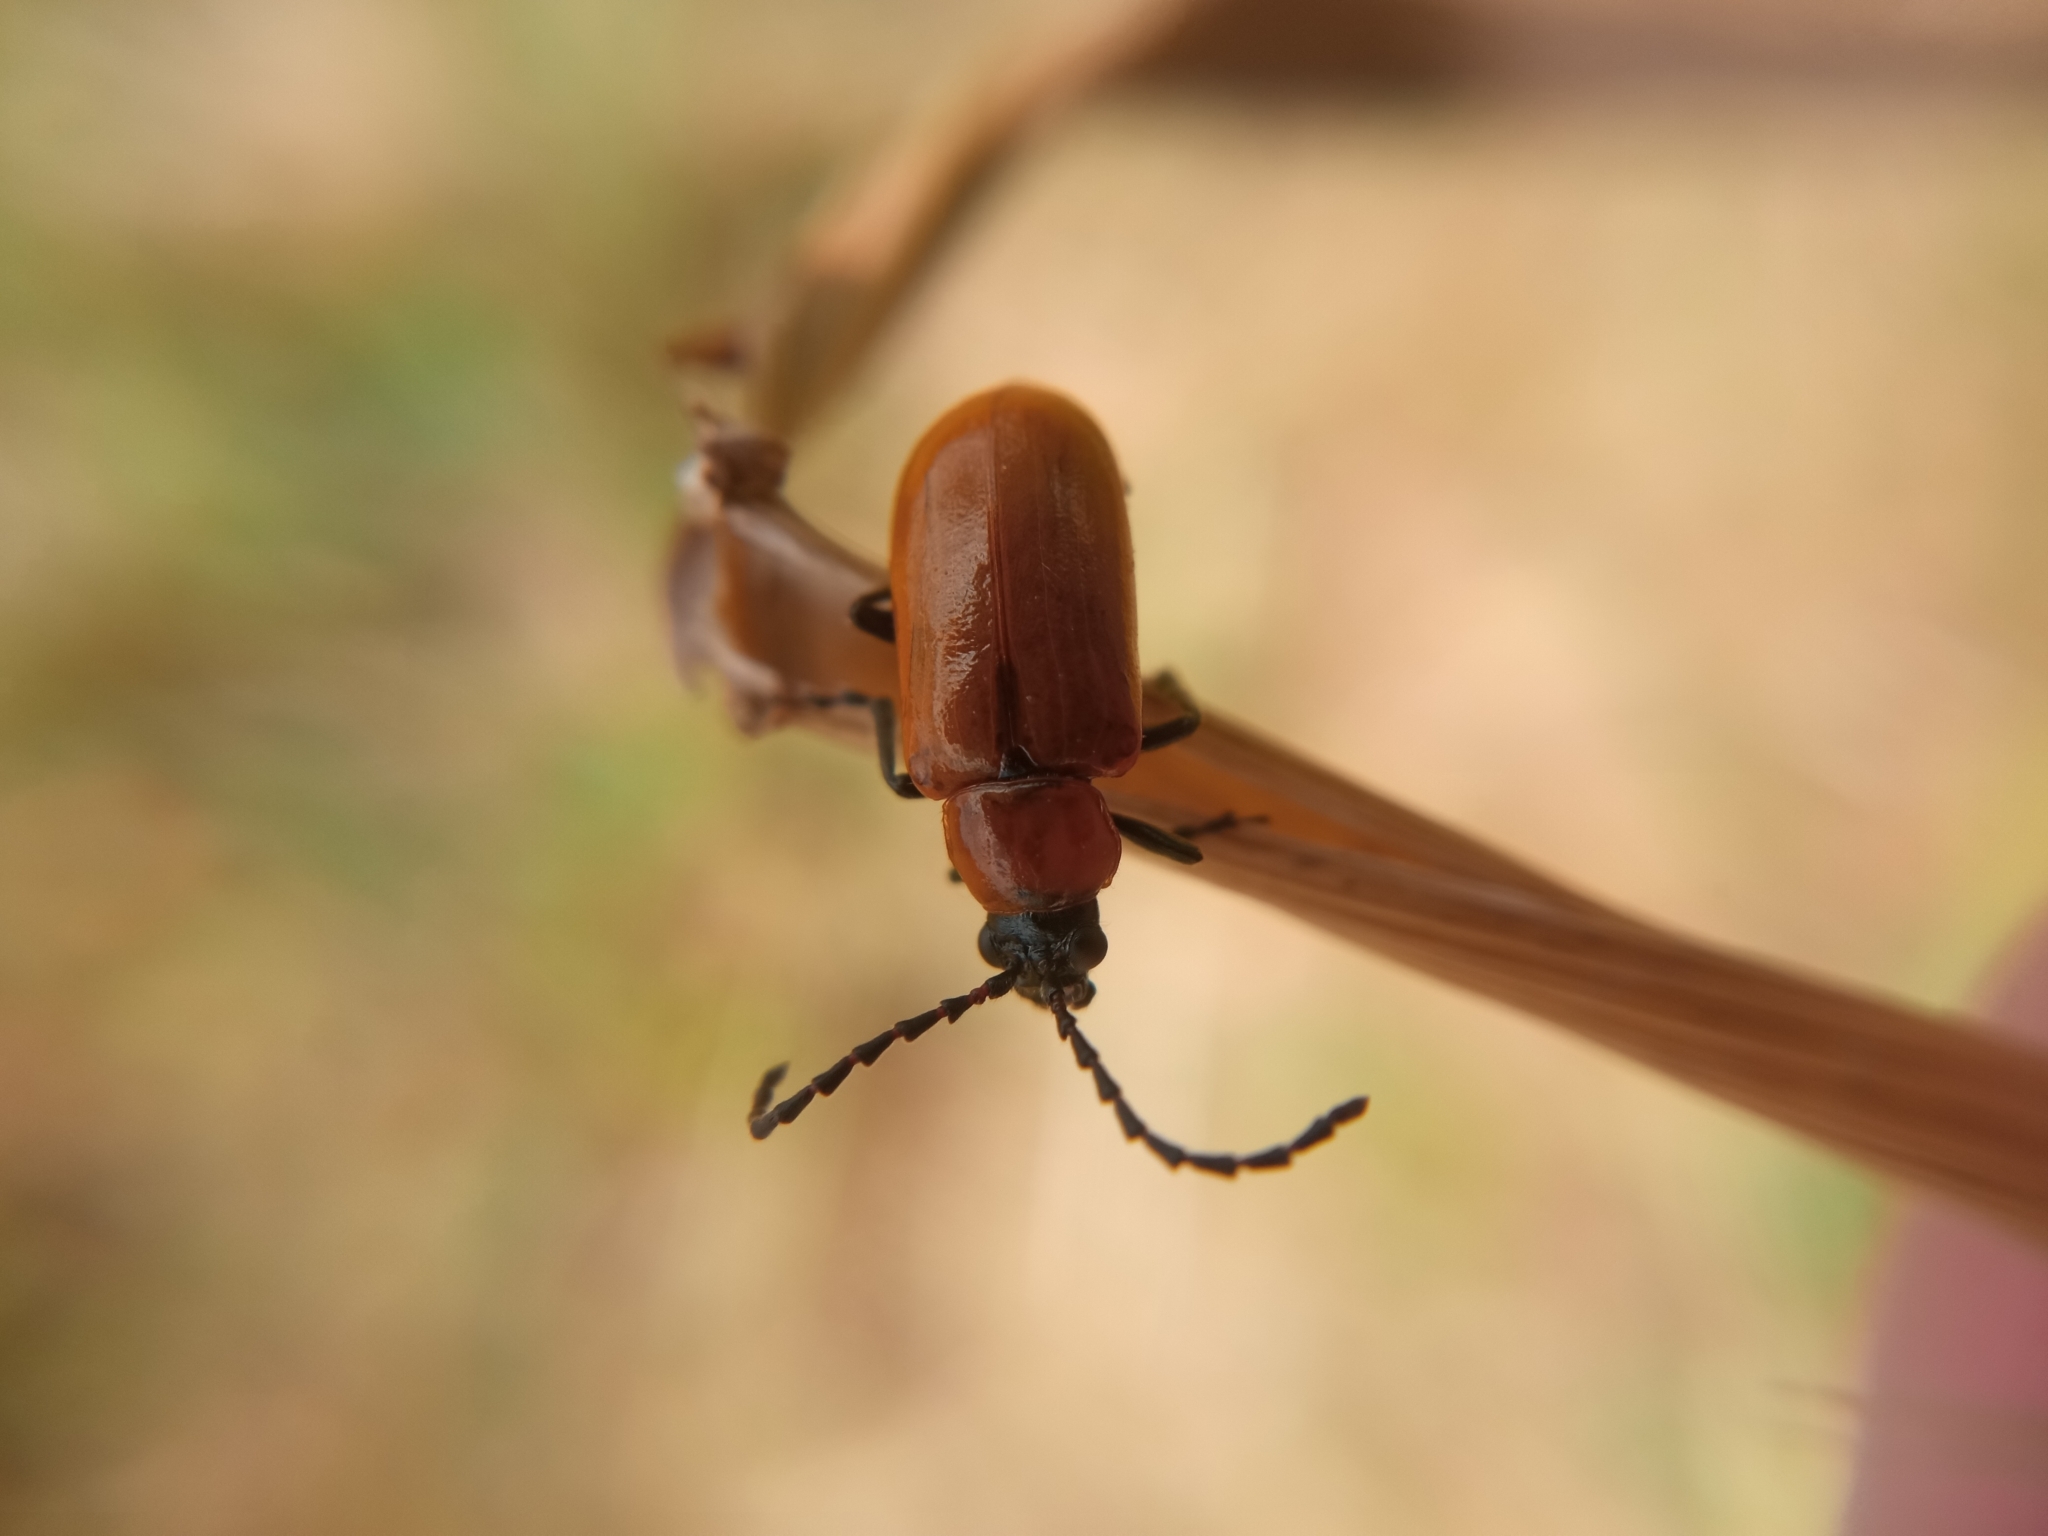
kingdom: Animalia
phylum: Arthropoda
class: Insecta
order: Coleoptera
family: Chrysomelidae
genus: Exosoma
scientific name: Exosoma lusitanicum
